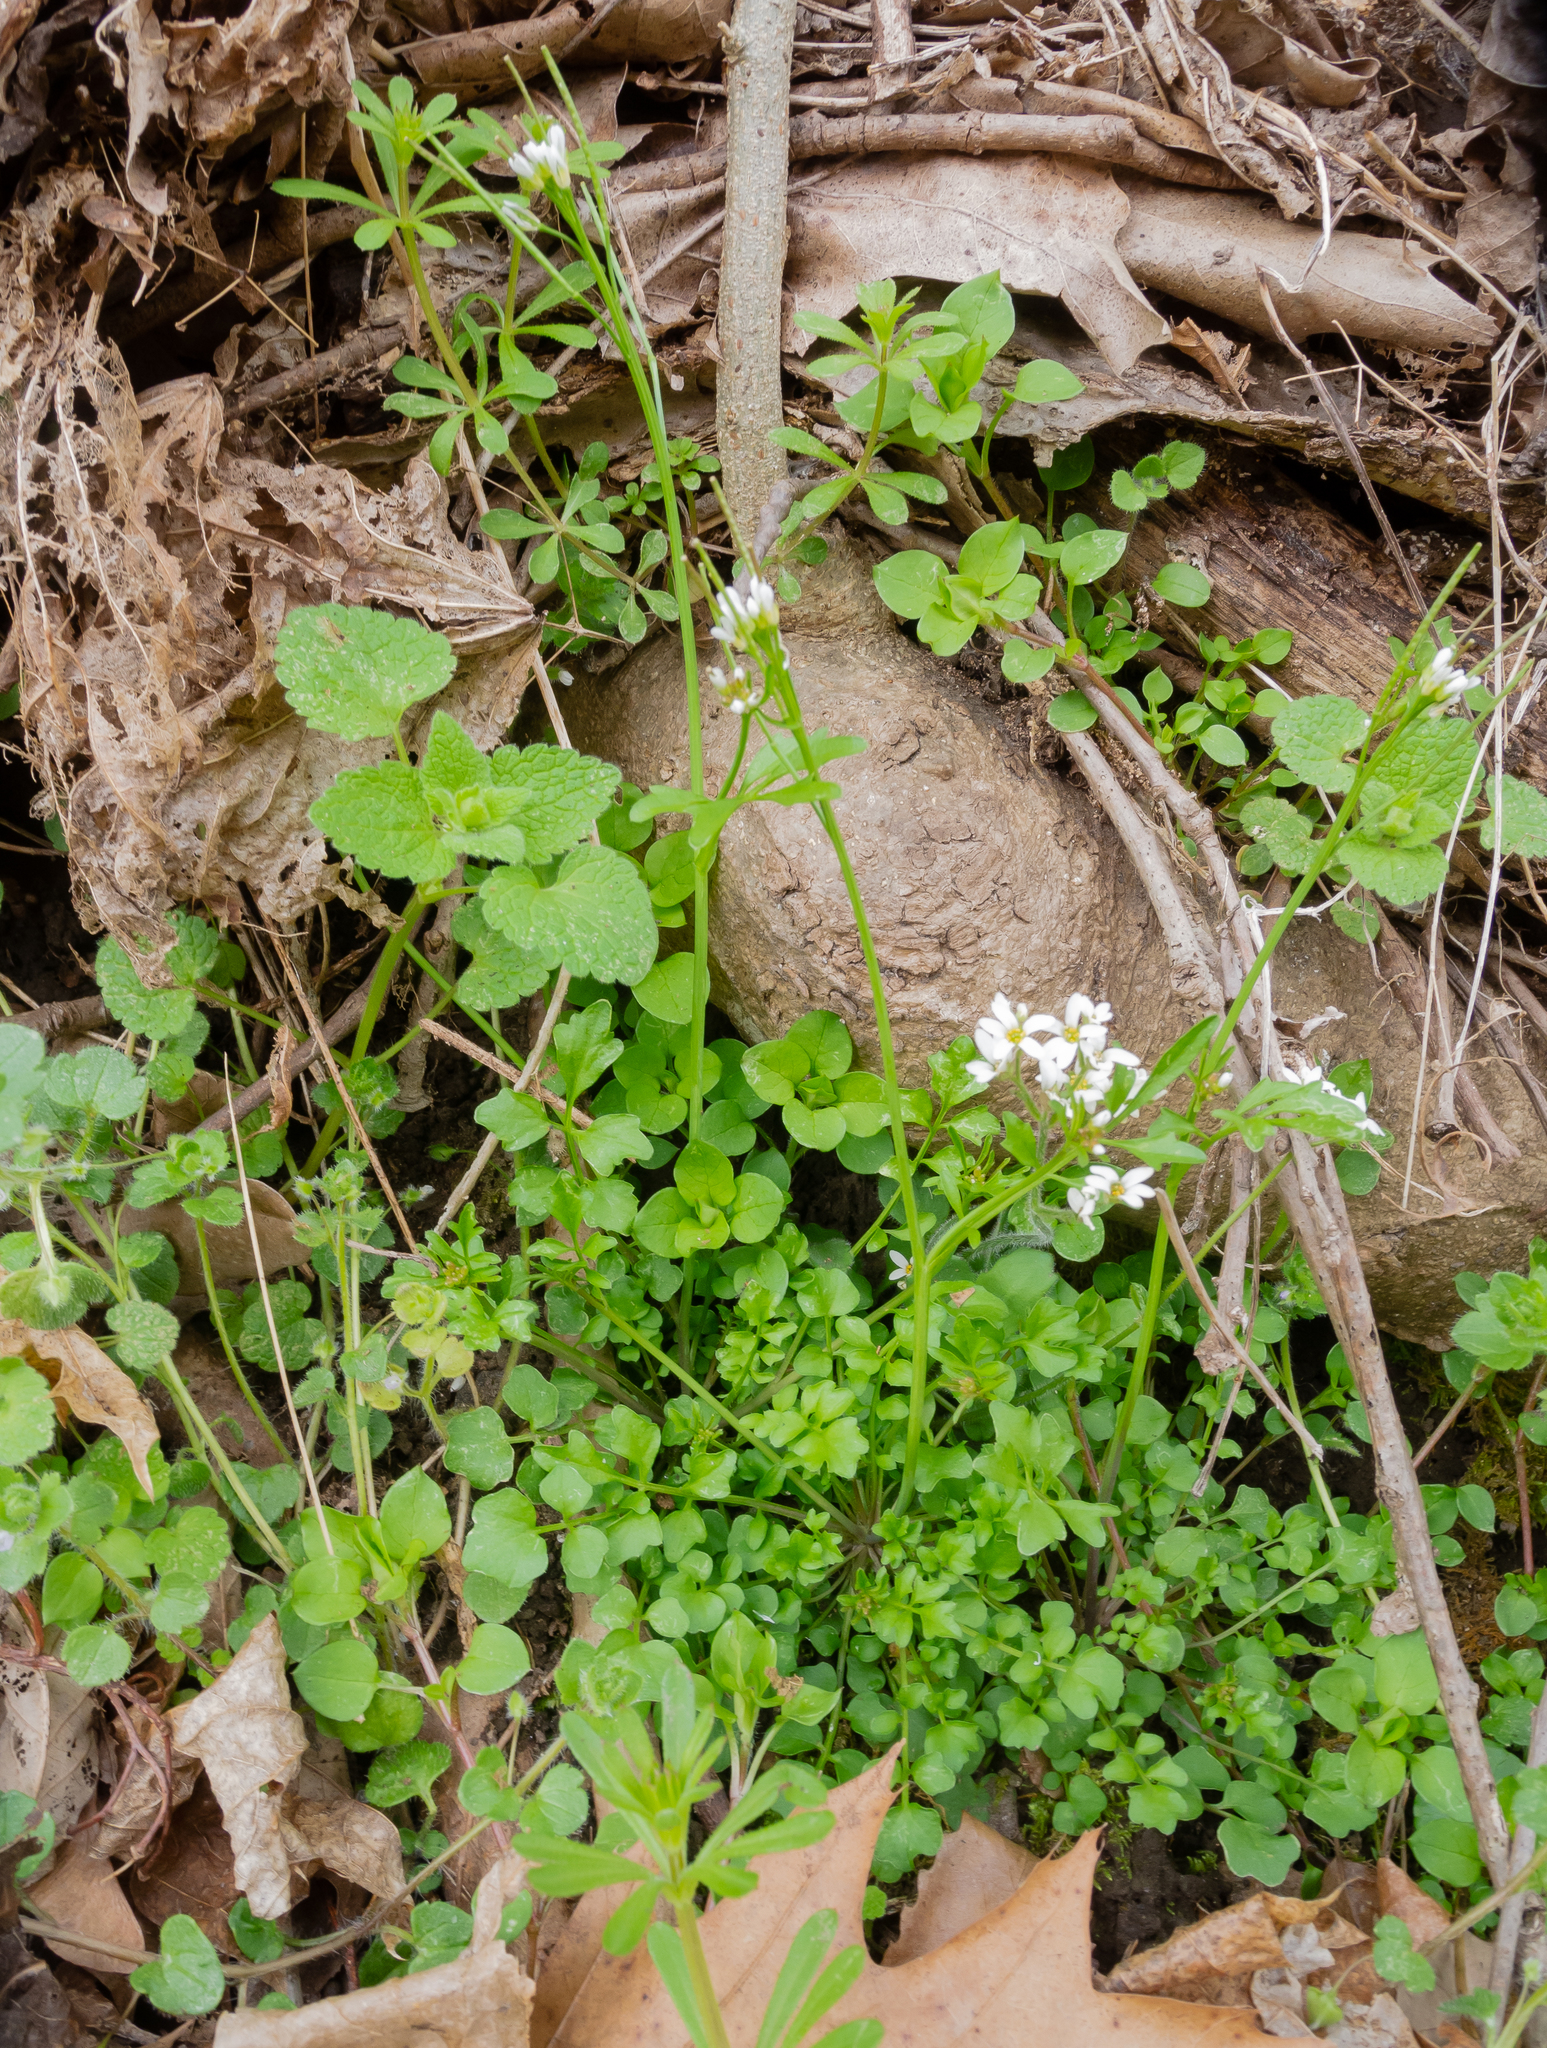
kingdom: Plantae
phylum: Tracheophyta
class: Magnoliopsida
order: Saxifragales
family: Saxifragaceae
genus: Micranthes
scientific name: Micranthes virginiensis
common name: Early saxifrage
